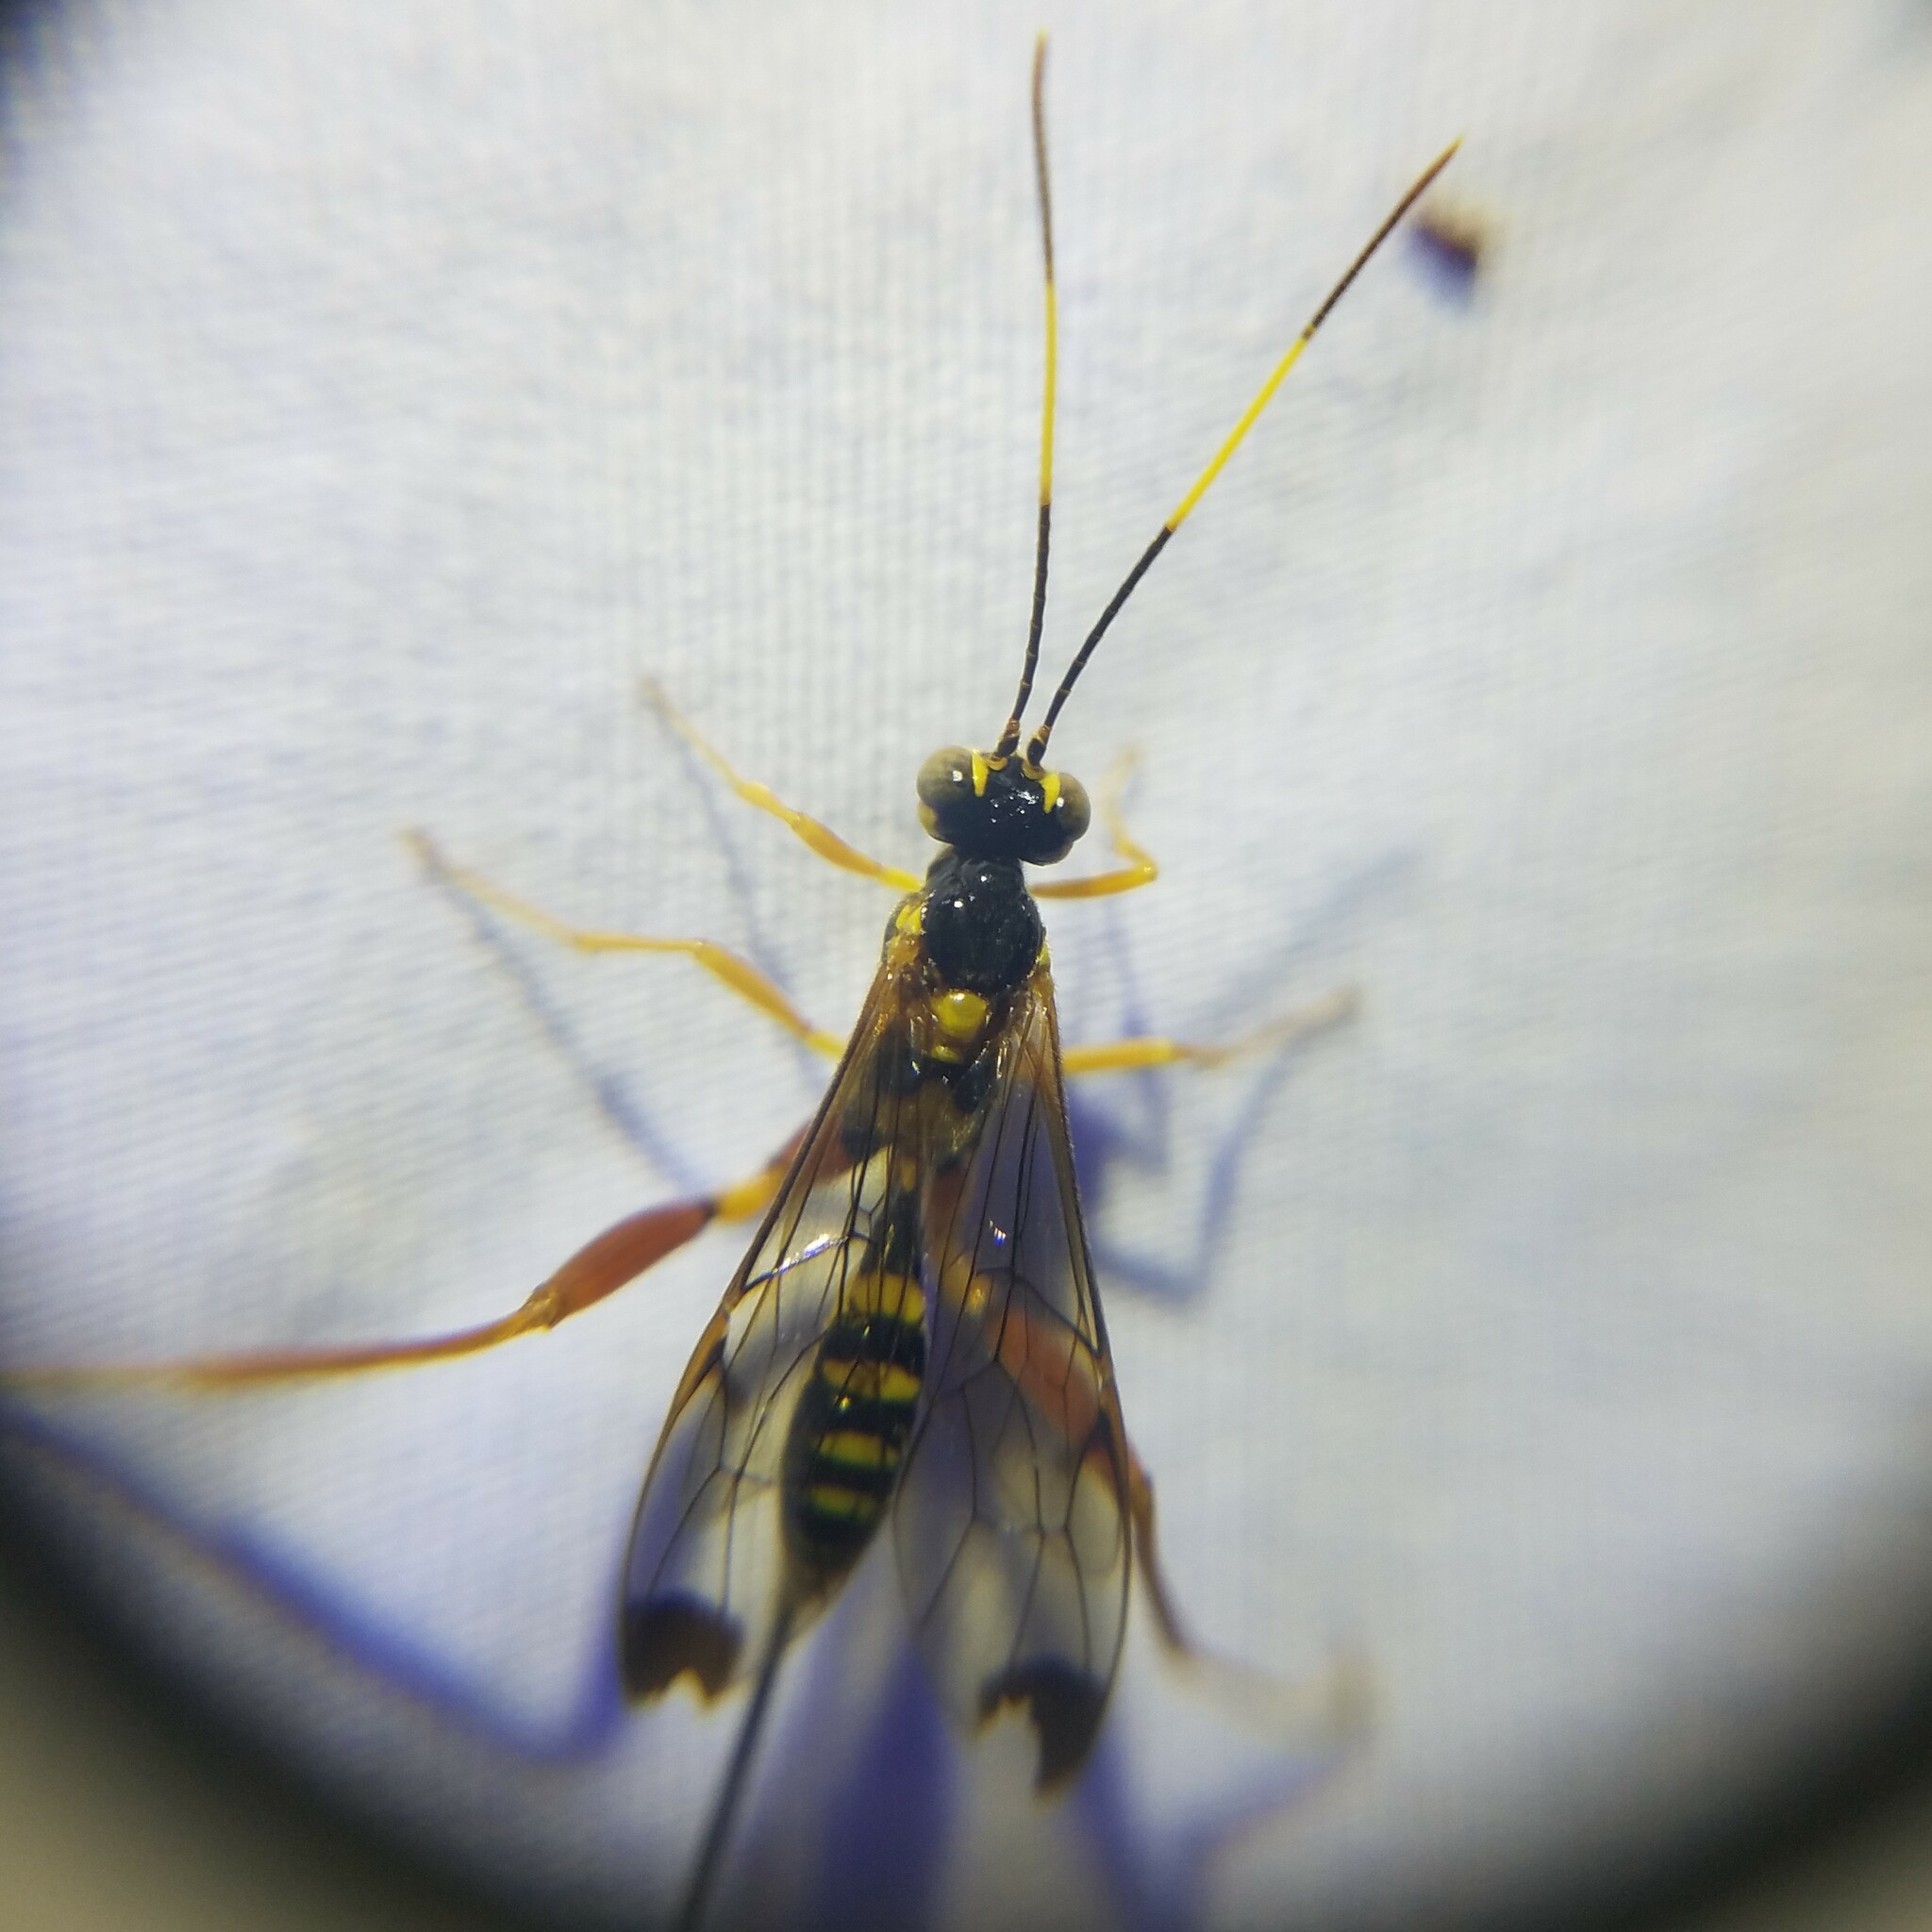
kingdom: Animalia
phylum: Arthropoda
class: Insecta
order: Hymenoptera
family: Ichneumonidae
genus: Spilopteron
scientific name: Spilopteron occiputale
